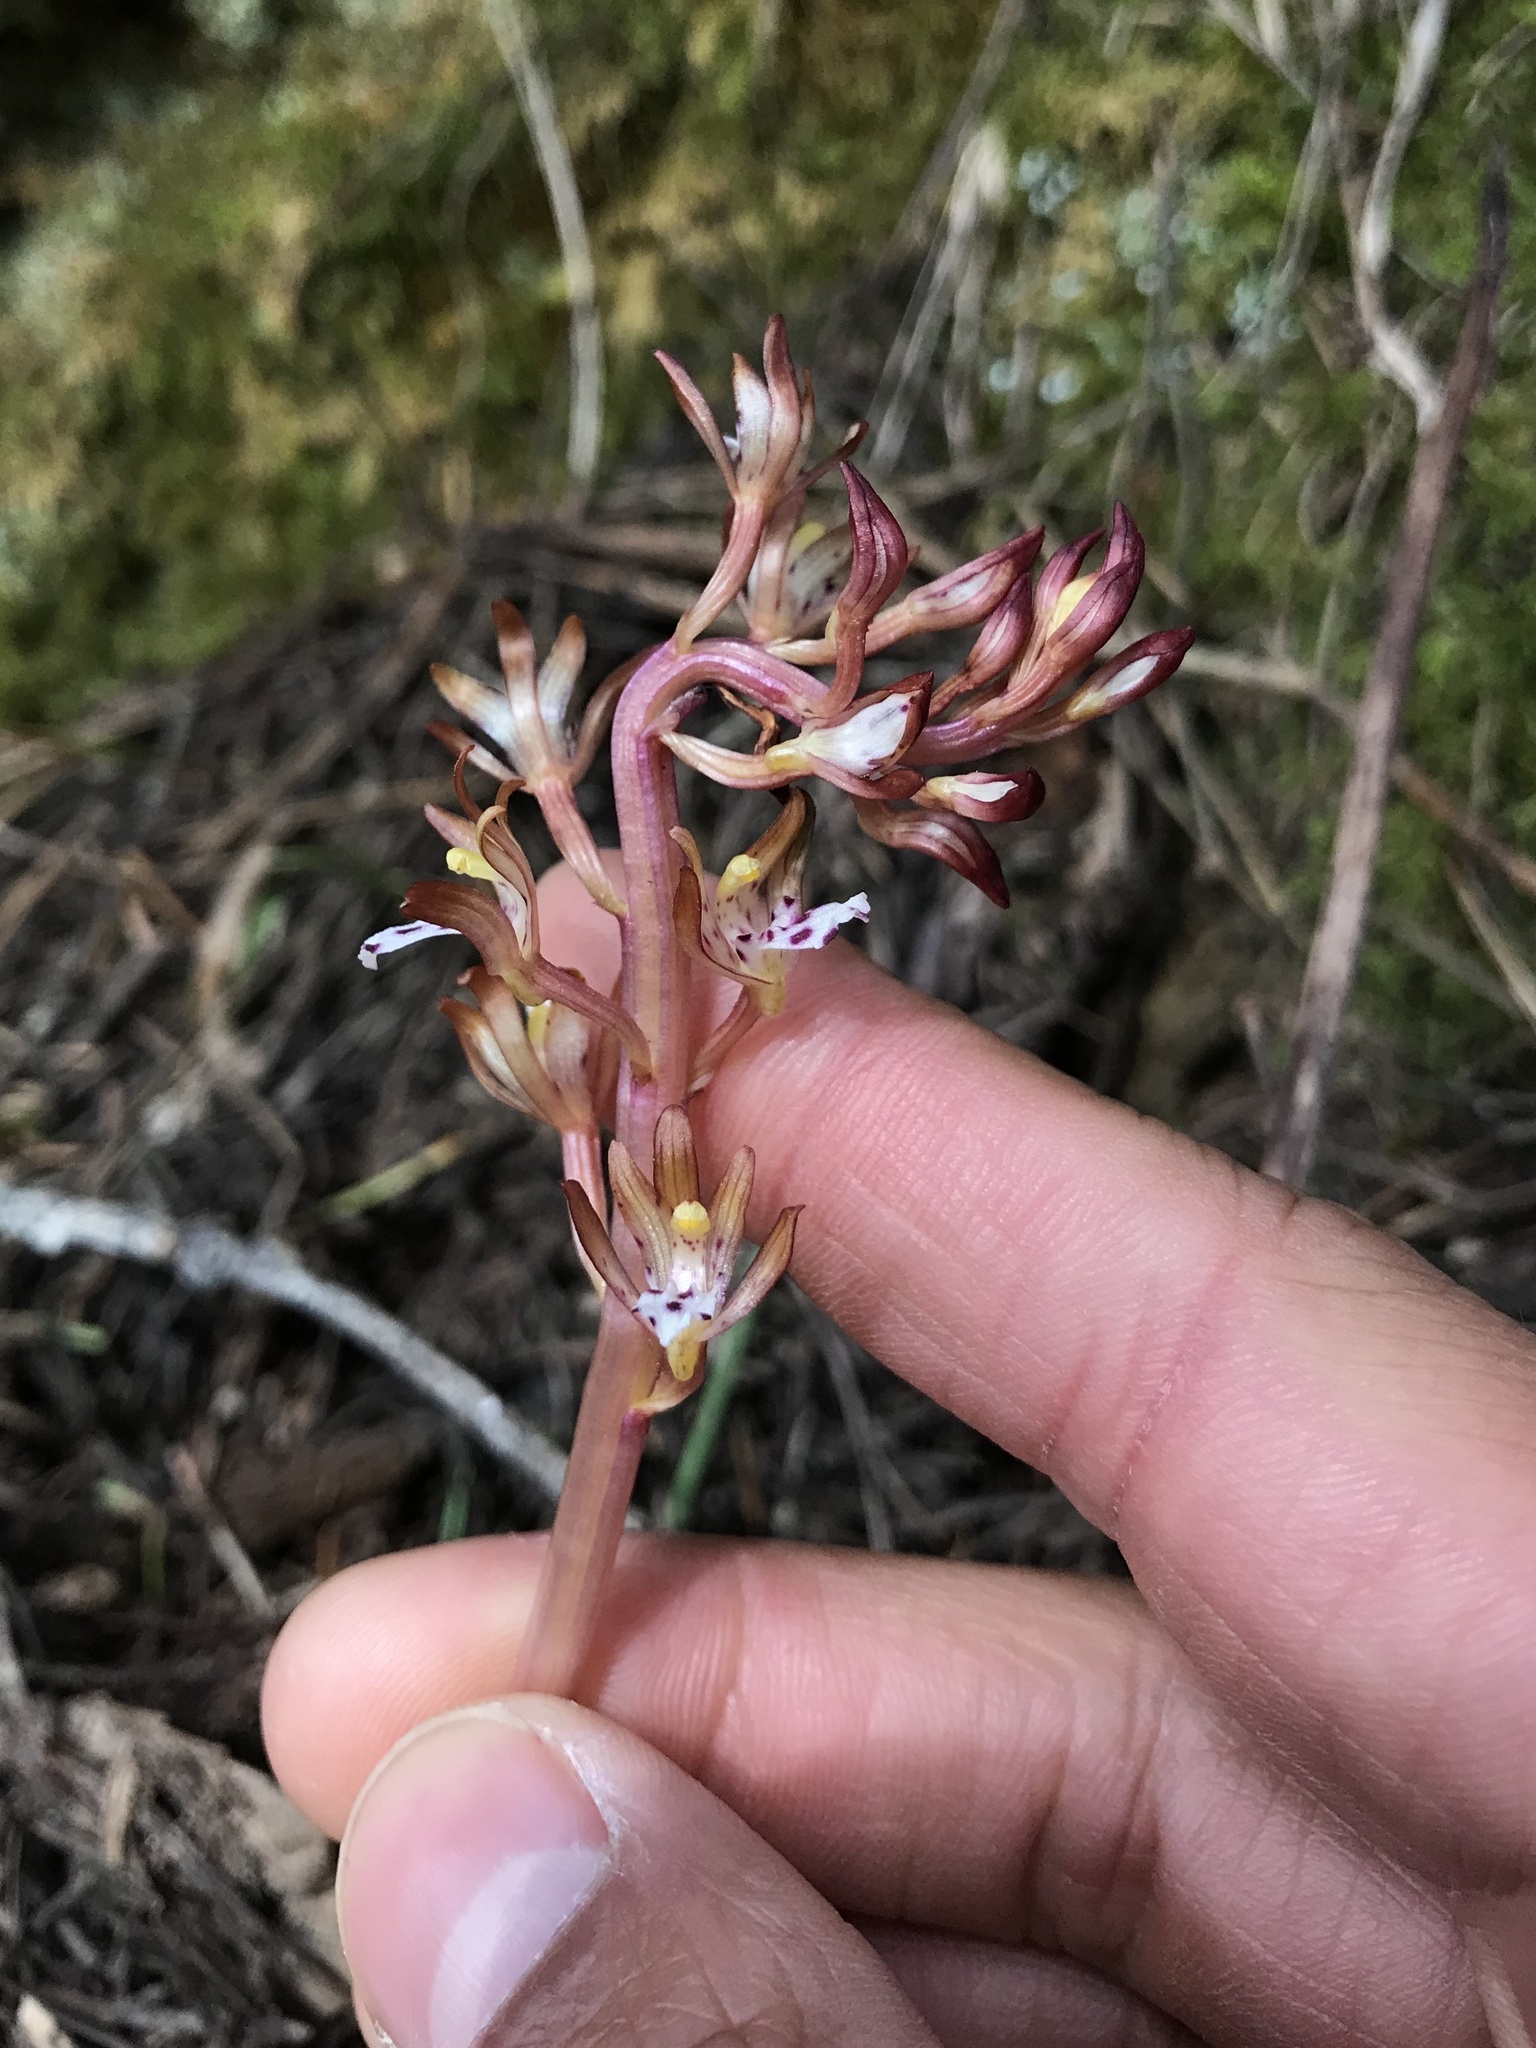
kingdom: Plantae
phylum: Tracheophyta
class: Liliopsida
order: Asparagales
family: Orchidaceae
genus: Corallorhiza
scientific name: Corallorhiza maculata
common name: Spotted coralroot
